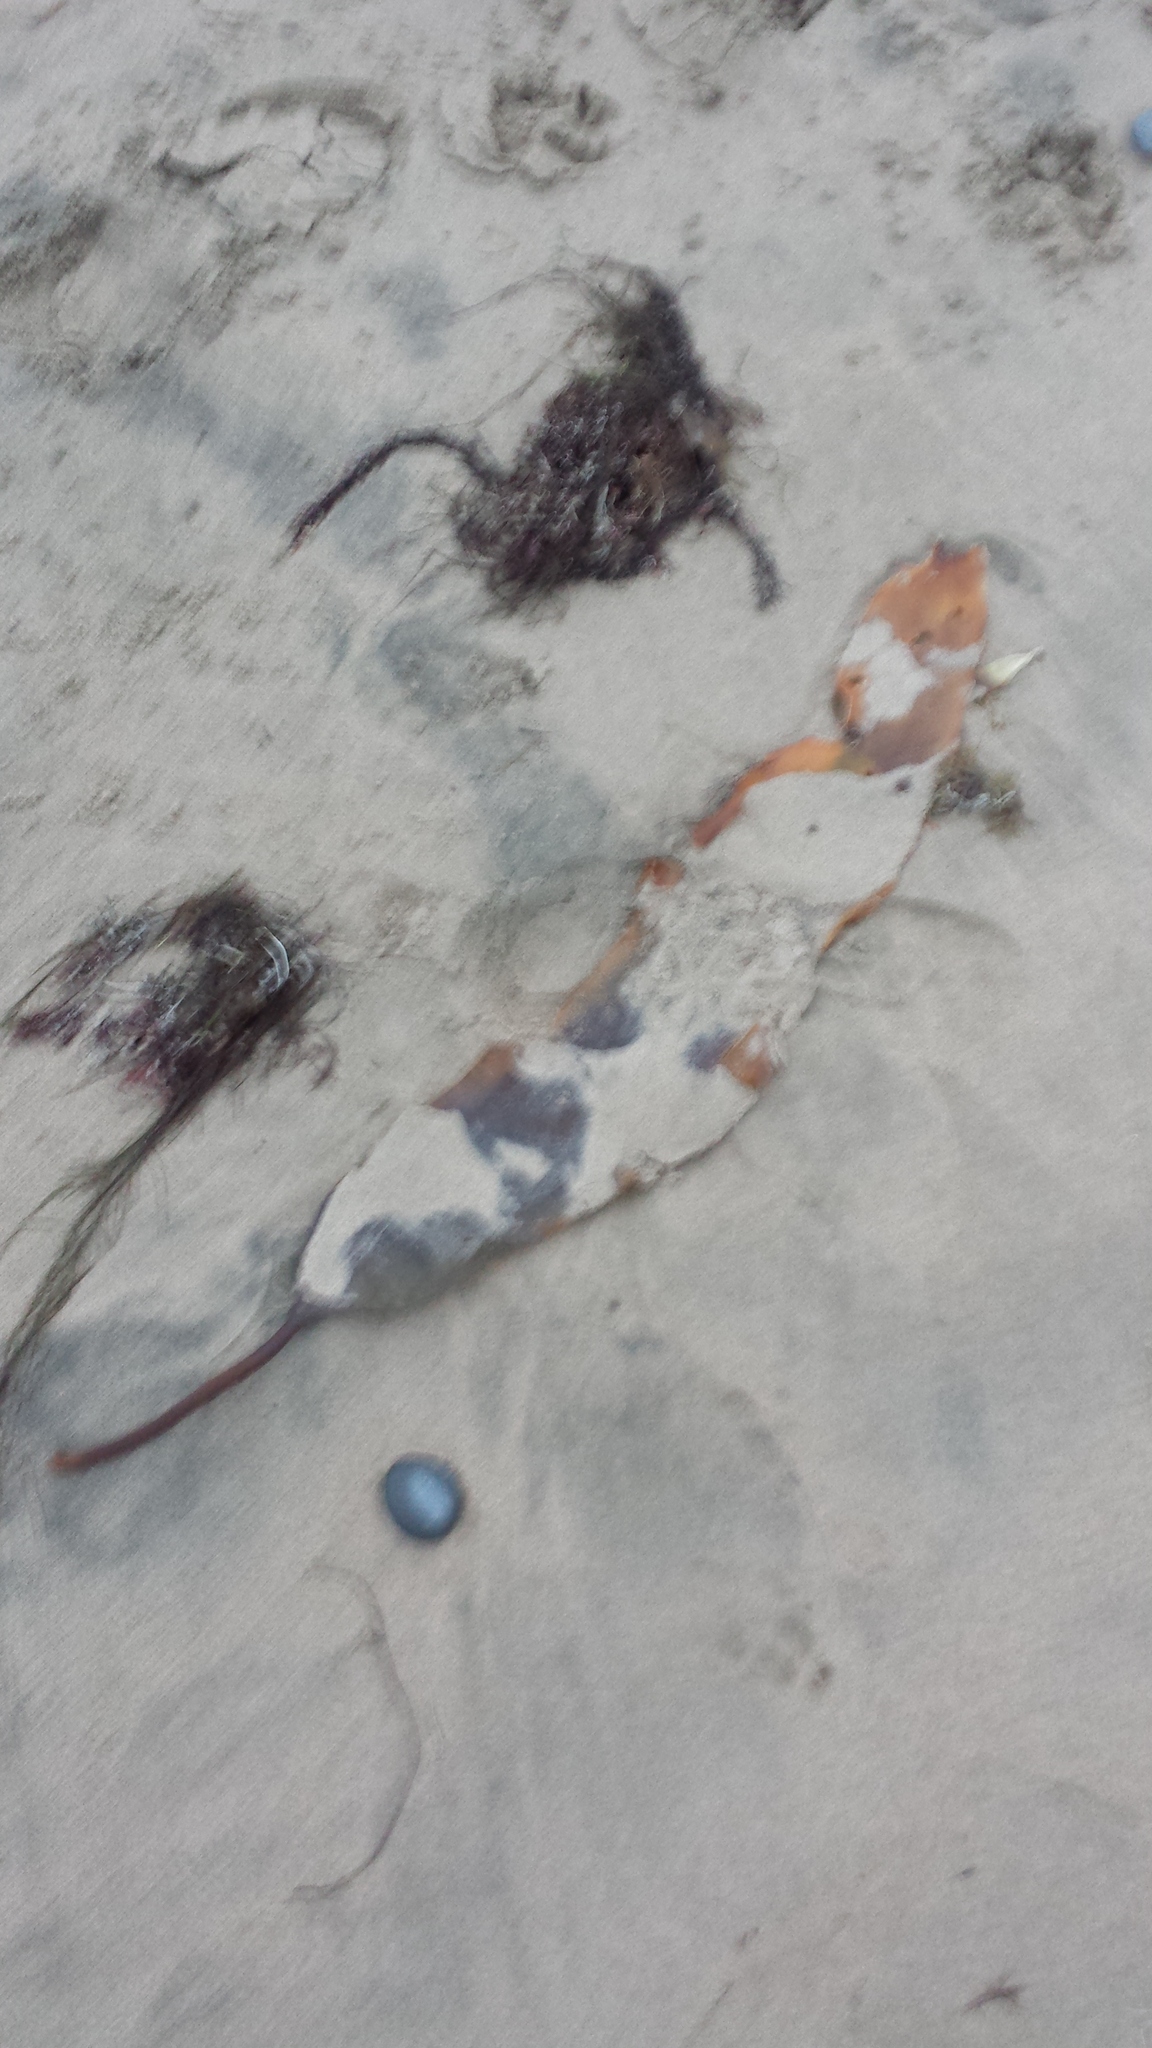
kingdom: Chromista
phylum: Ochrophyta
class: Phaeophyceae
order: Laminariales
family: Laminariaceae
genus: Saccharina
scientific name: Saccharina latissima
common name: Poor man's weather glass
